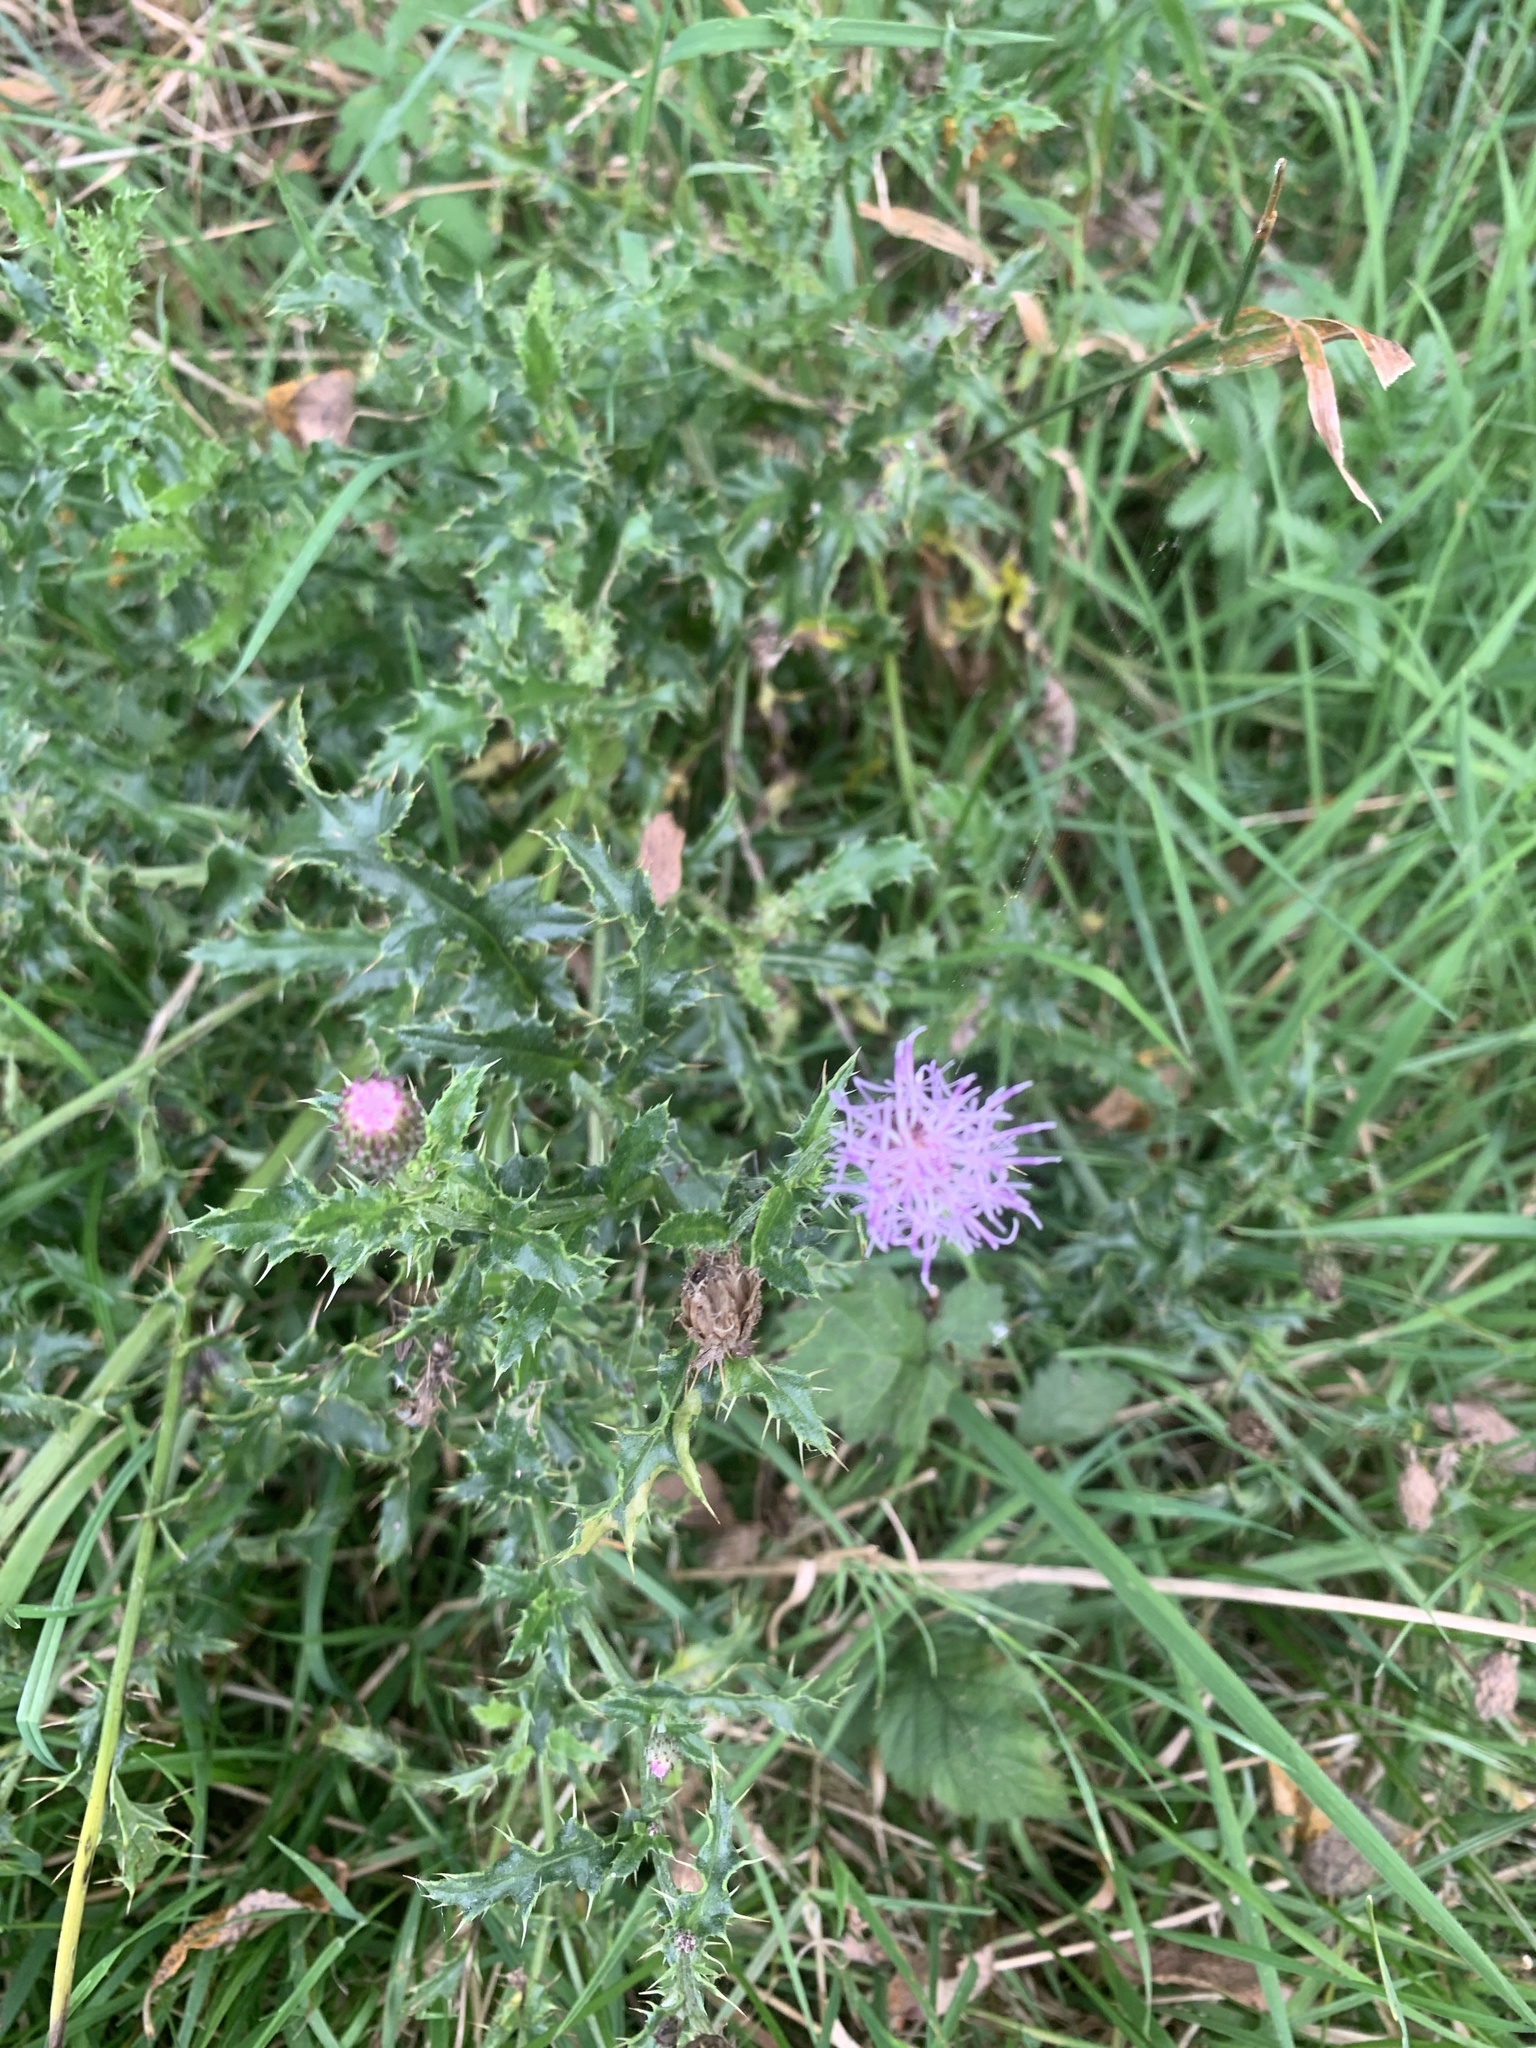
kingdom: Plantae
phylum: Tracheophyta
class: Magnoliopsida
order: Asterales
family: Asteraceae
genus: Cirsium
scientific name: Cirsium arvense
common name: Creeping thistle
